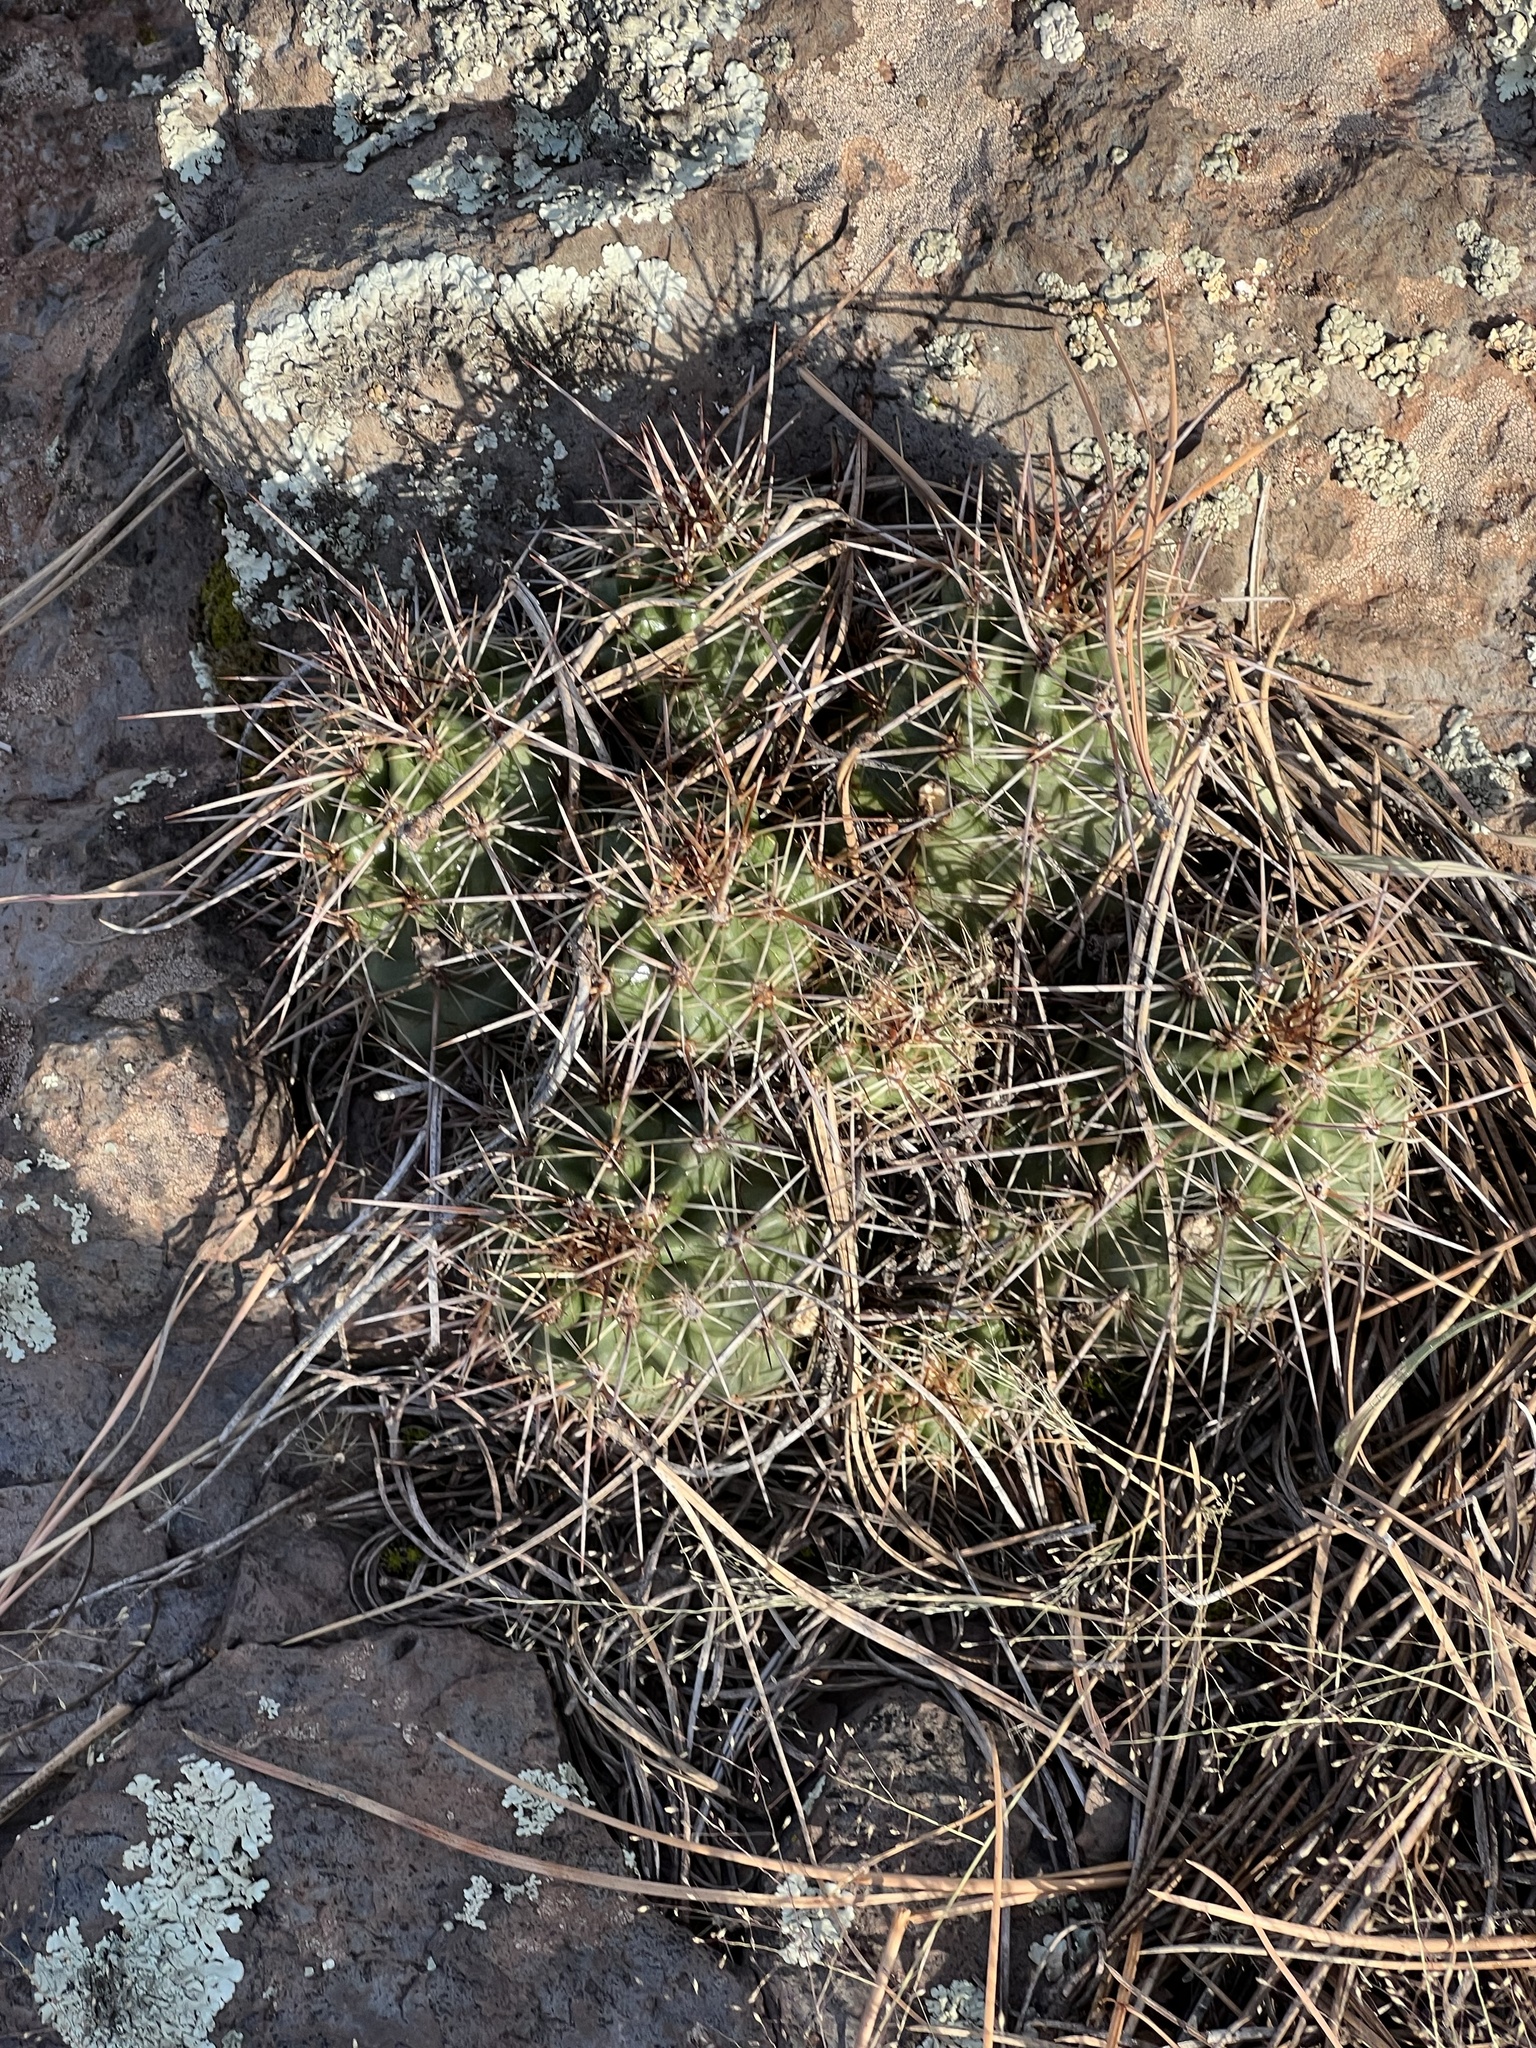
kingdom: Plantae
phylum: Tracheophyta
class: Magnoliopsida
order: Caryophyllales
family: Cactaceae
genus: Echinocereus
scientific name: Echinocereus bakeri
